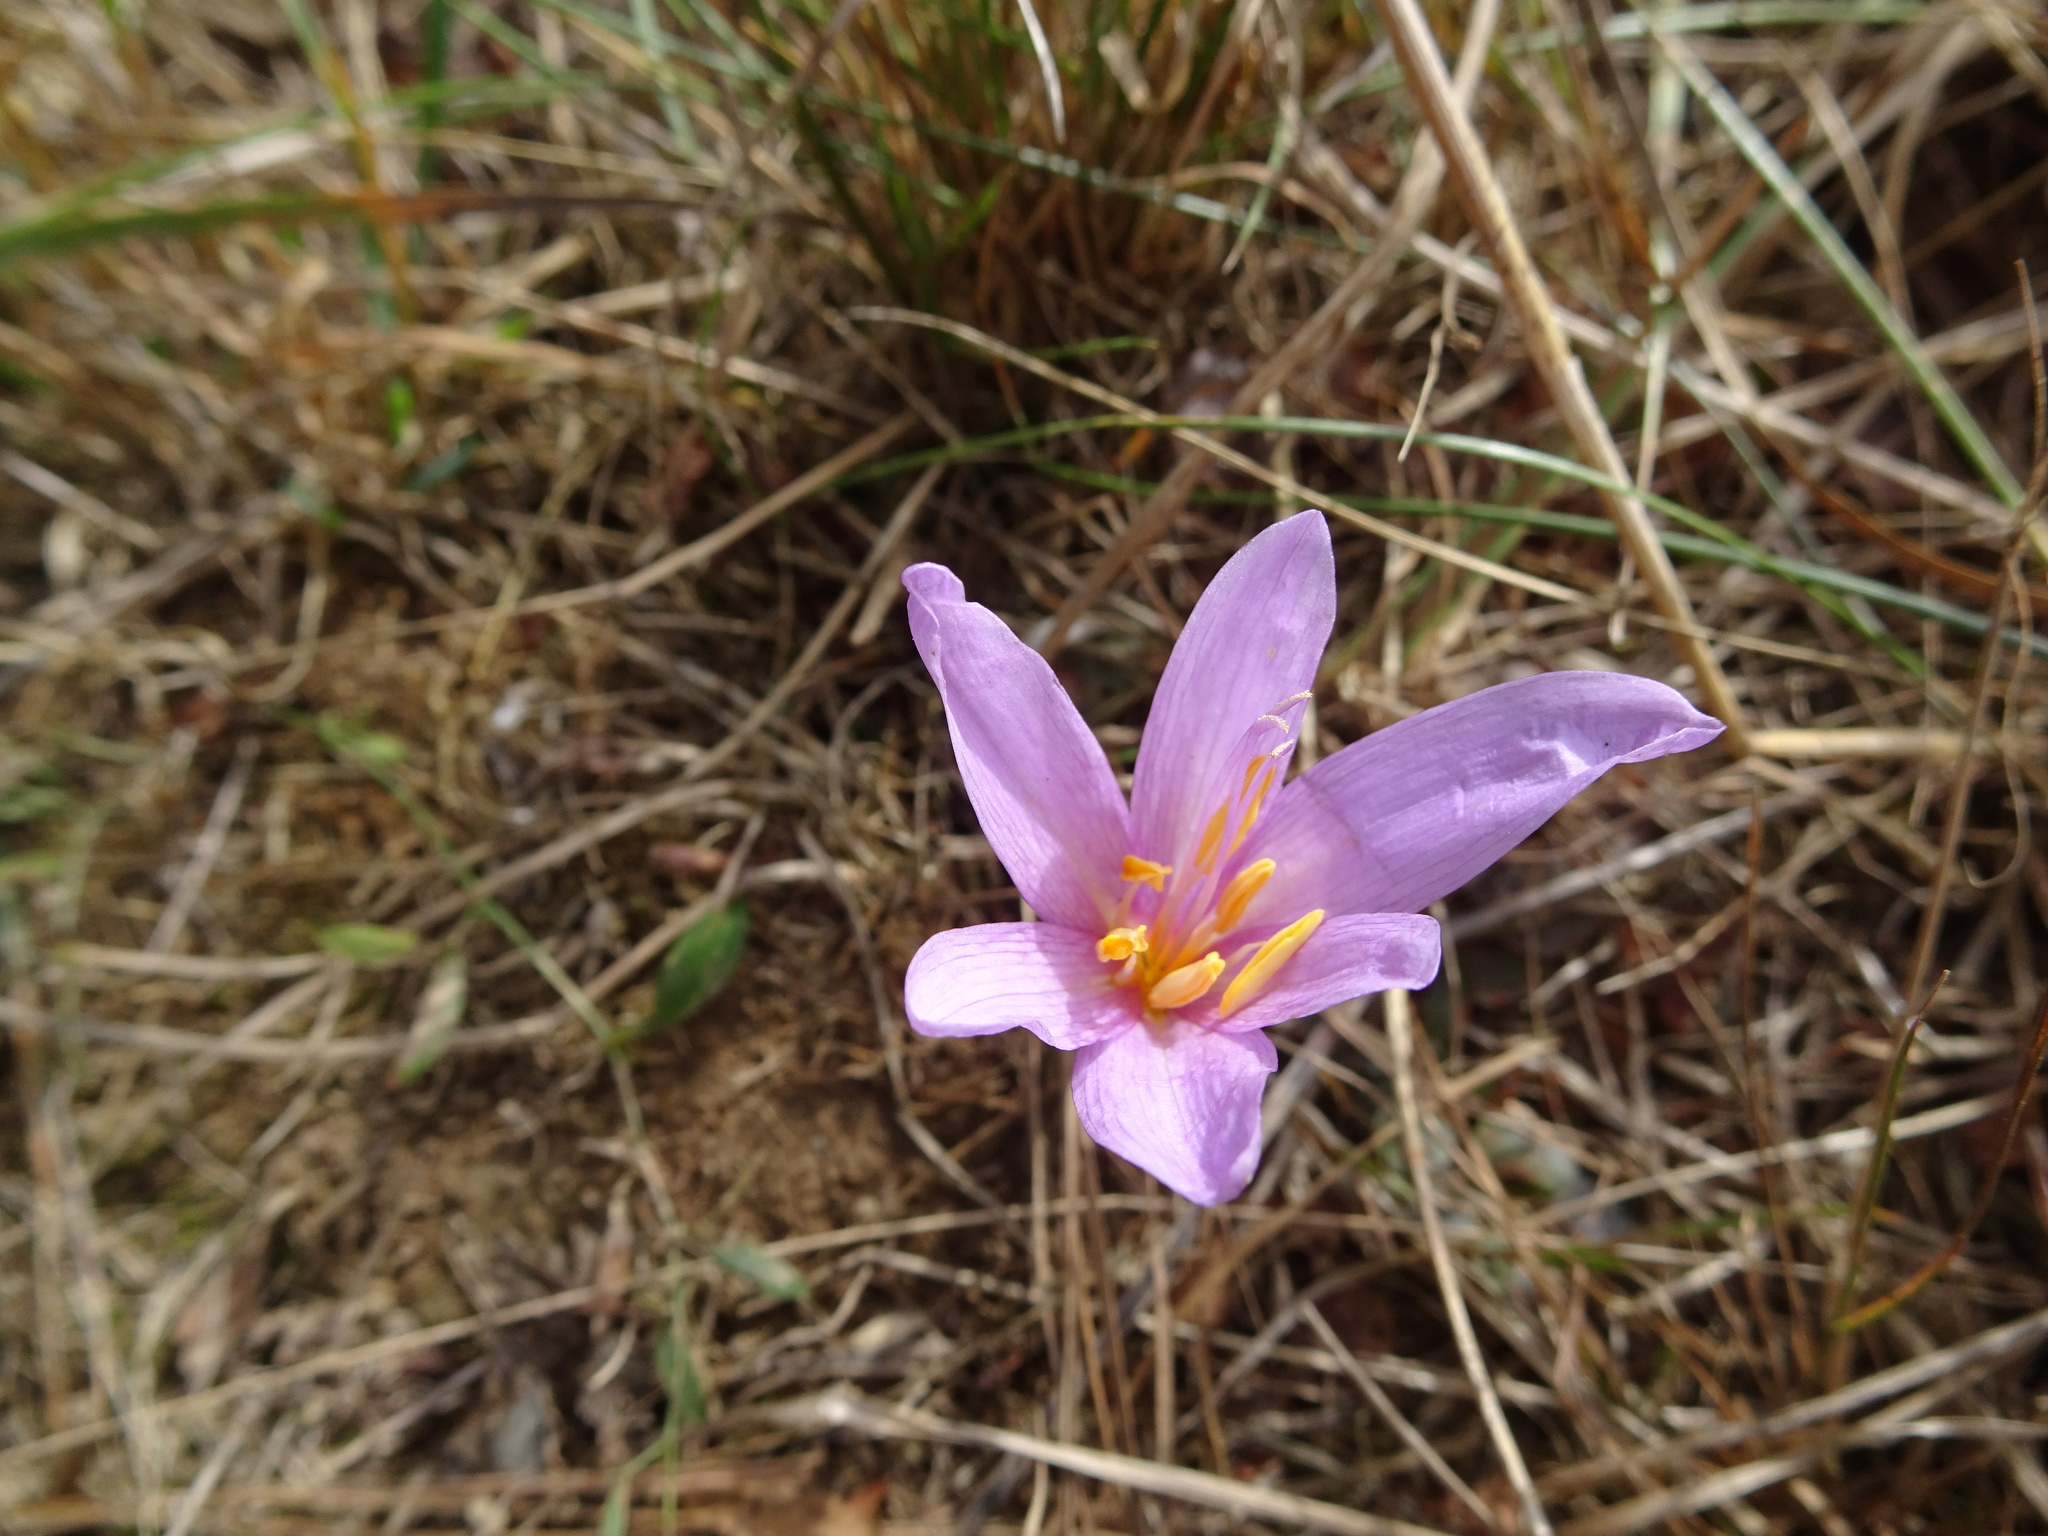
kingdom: Plantae
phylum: Tracheophyta
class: Liliopsida
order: Liliales
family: Colchicaceae
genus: Colchicum
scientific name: Colchicum autumnale
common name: Autumn crocus
